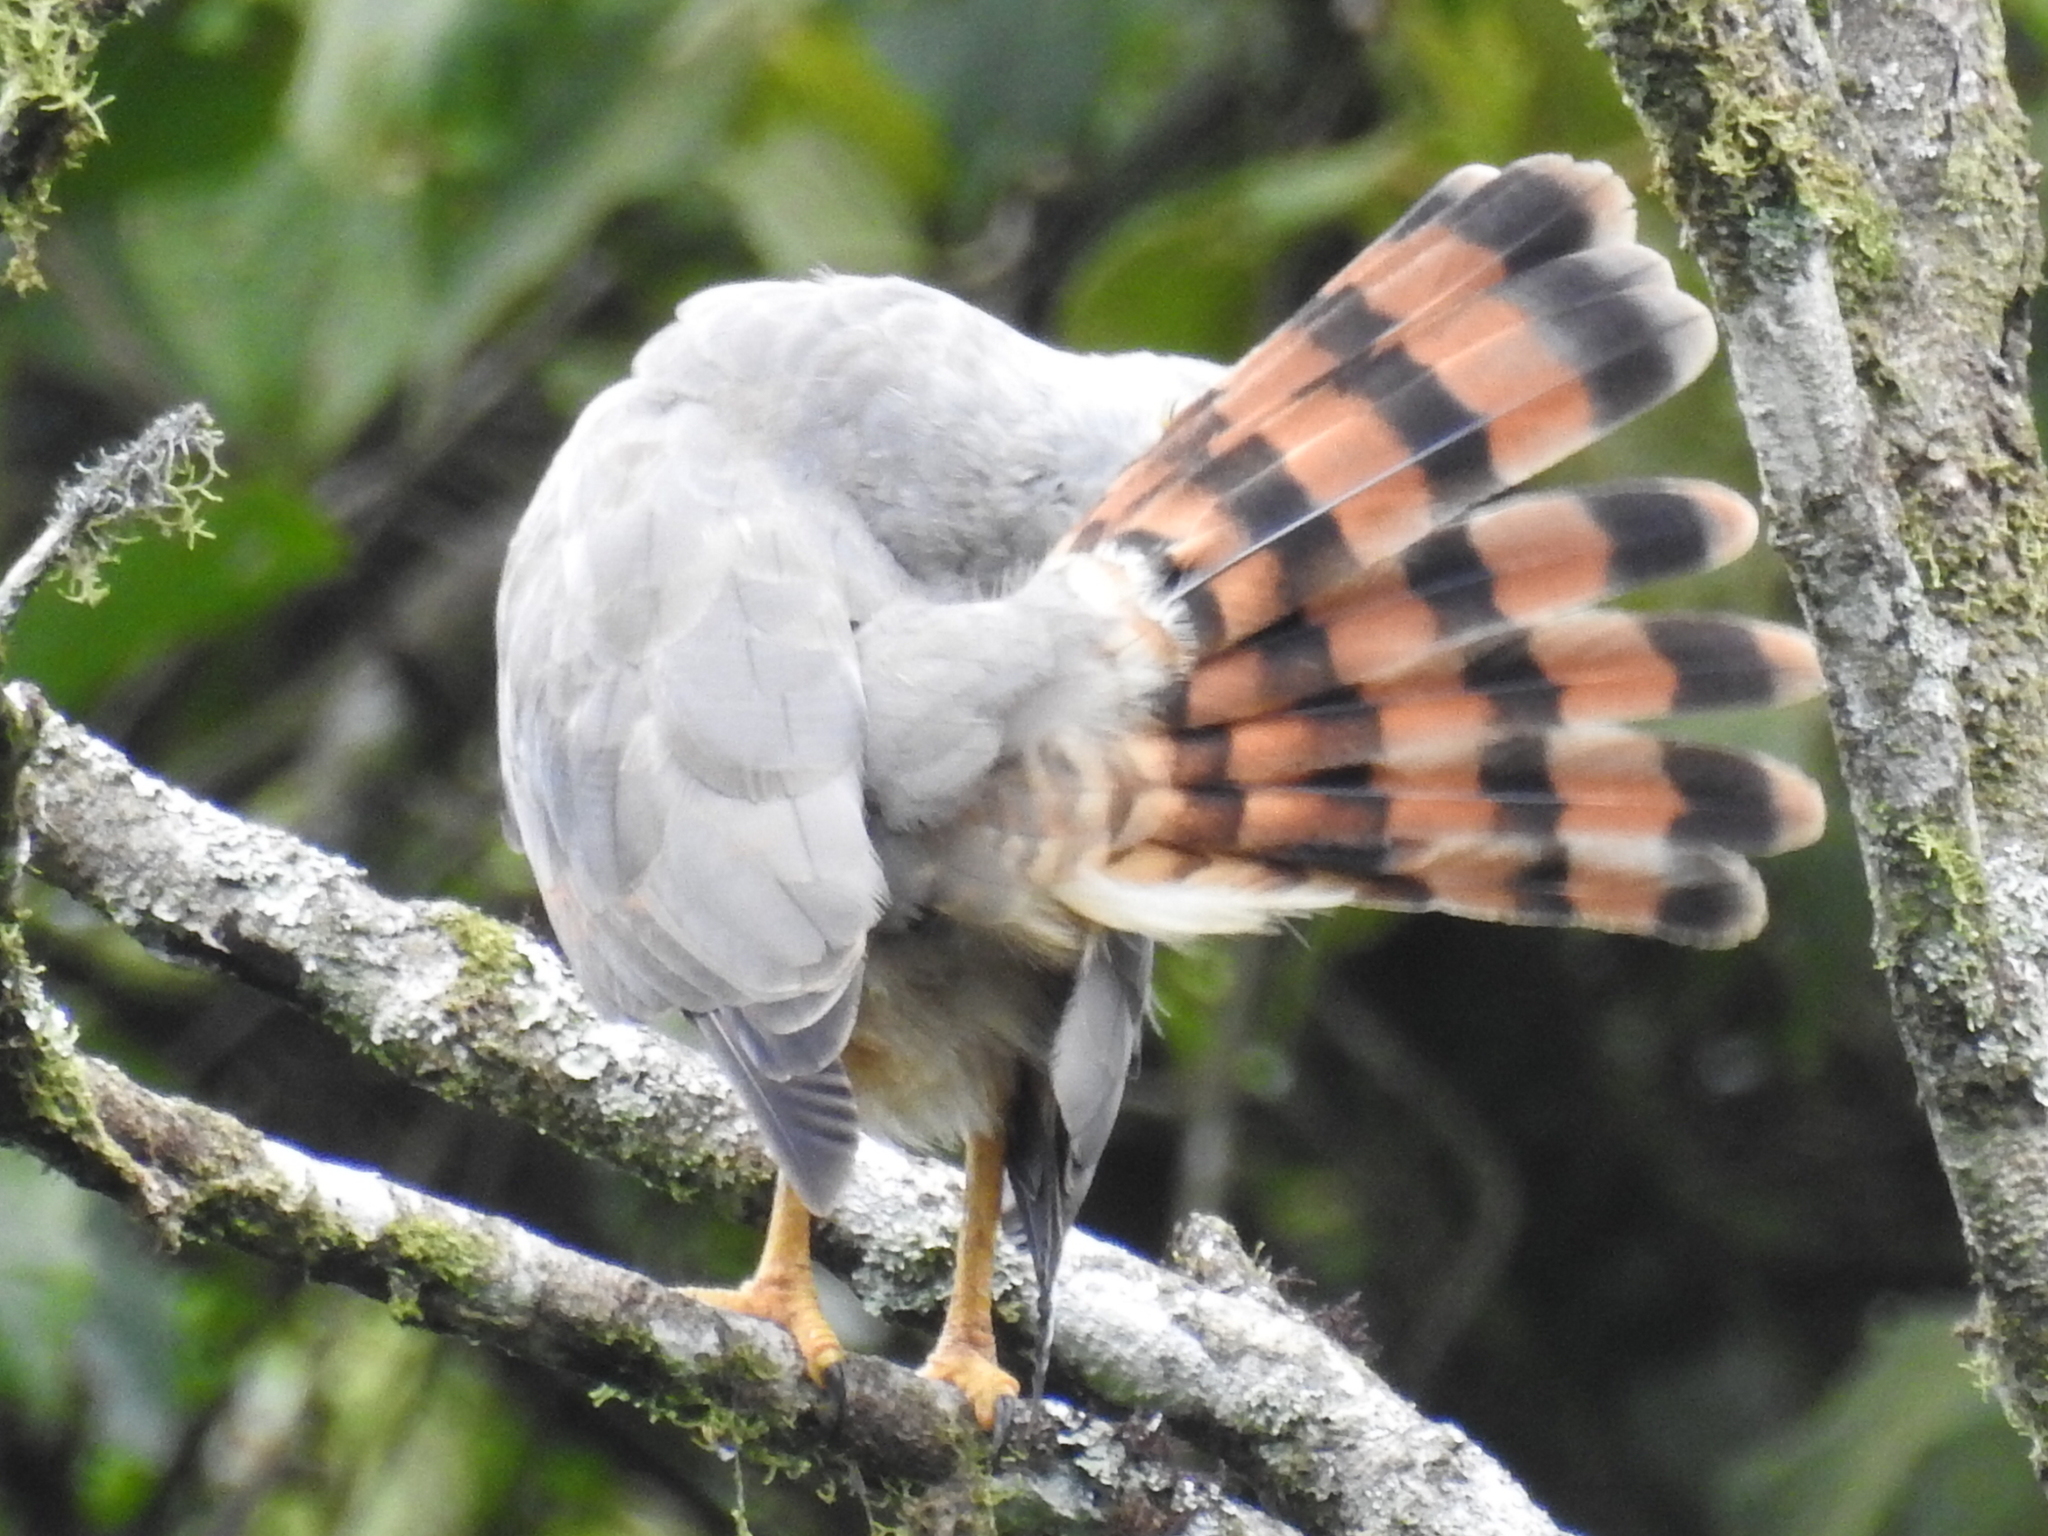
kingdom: Animalia
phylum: Chordata
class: Aves
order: Accipitriformes
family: Accipitridae
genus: Rupornis
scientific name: Rupornis magnirostris
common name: Roadside hawk
